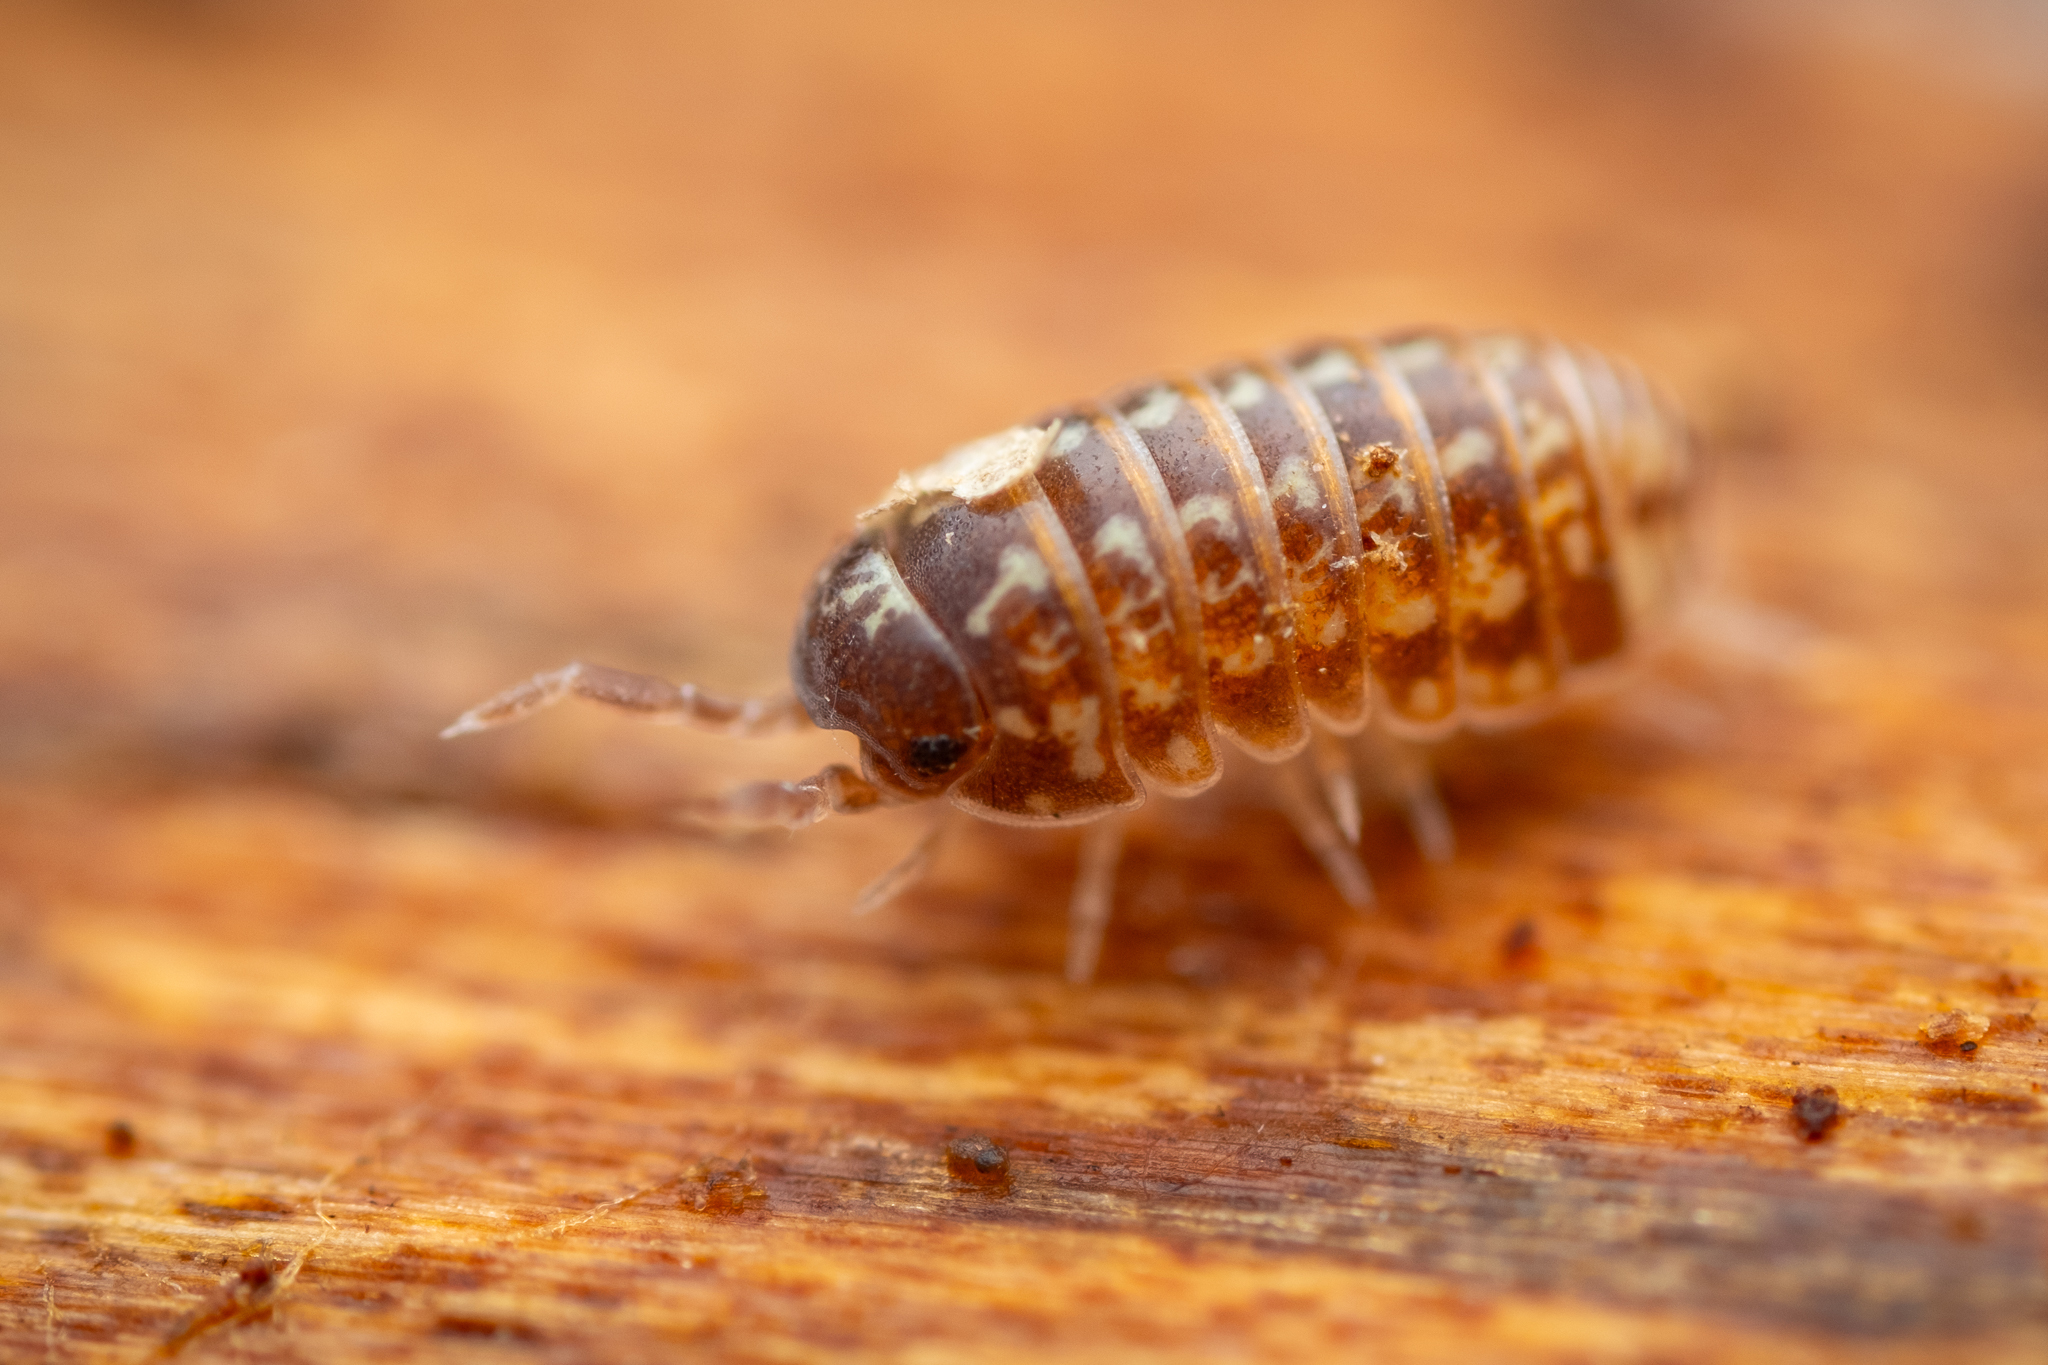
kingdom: Animalia
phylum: Arthropoda
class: Malacostraca
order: Isopoda
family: Armadillidiidae
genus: Armadillidium
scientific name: Armadillidium pulchellum
